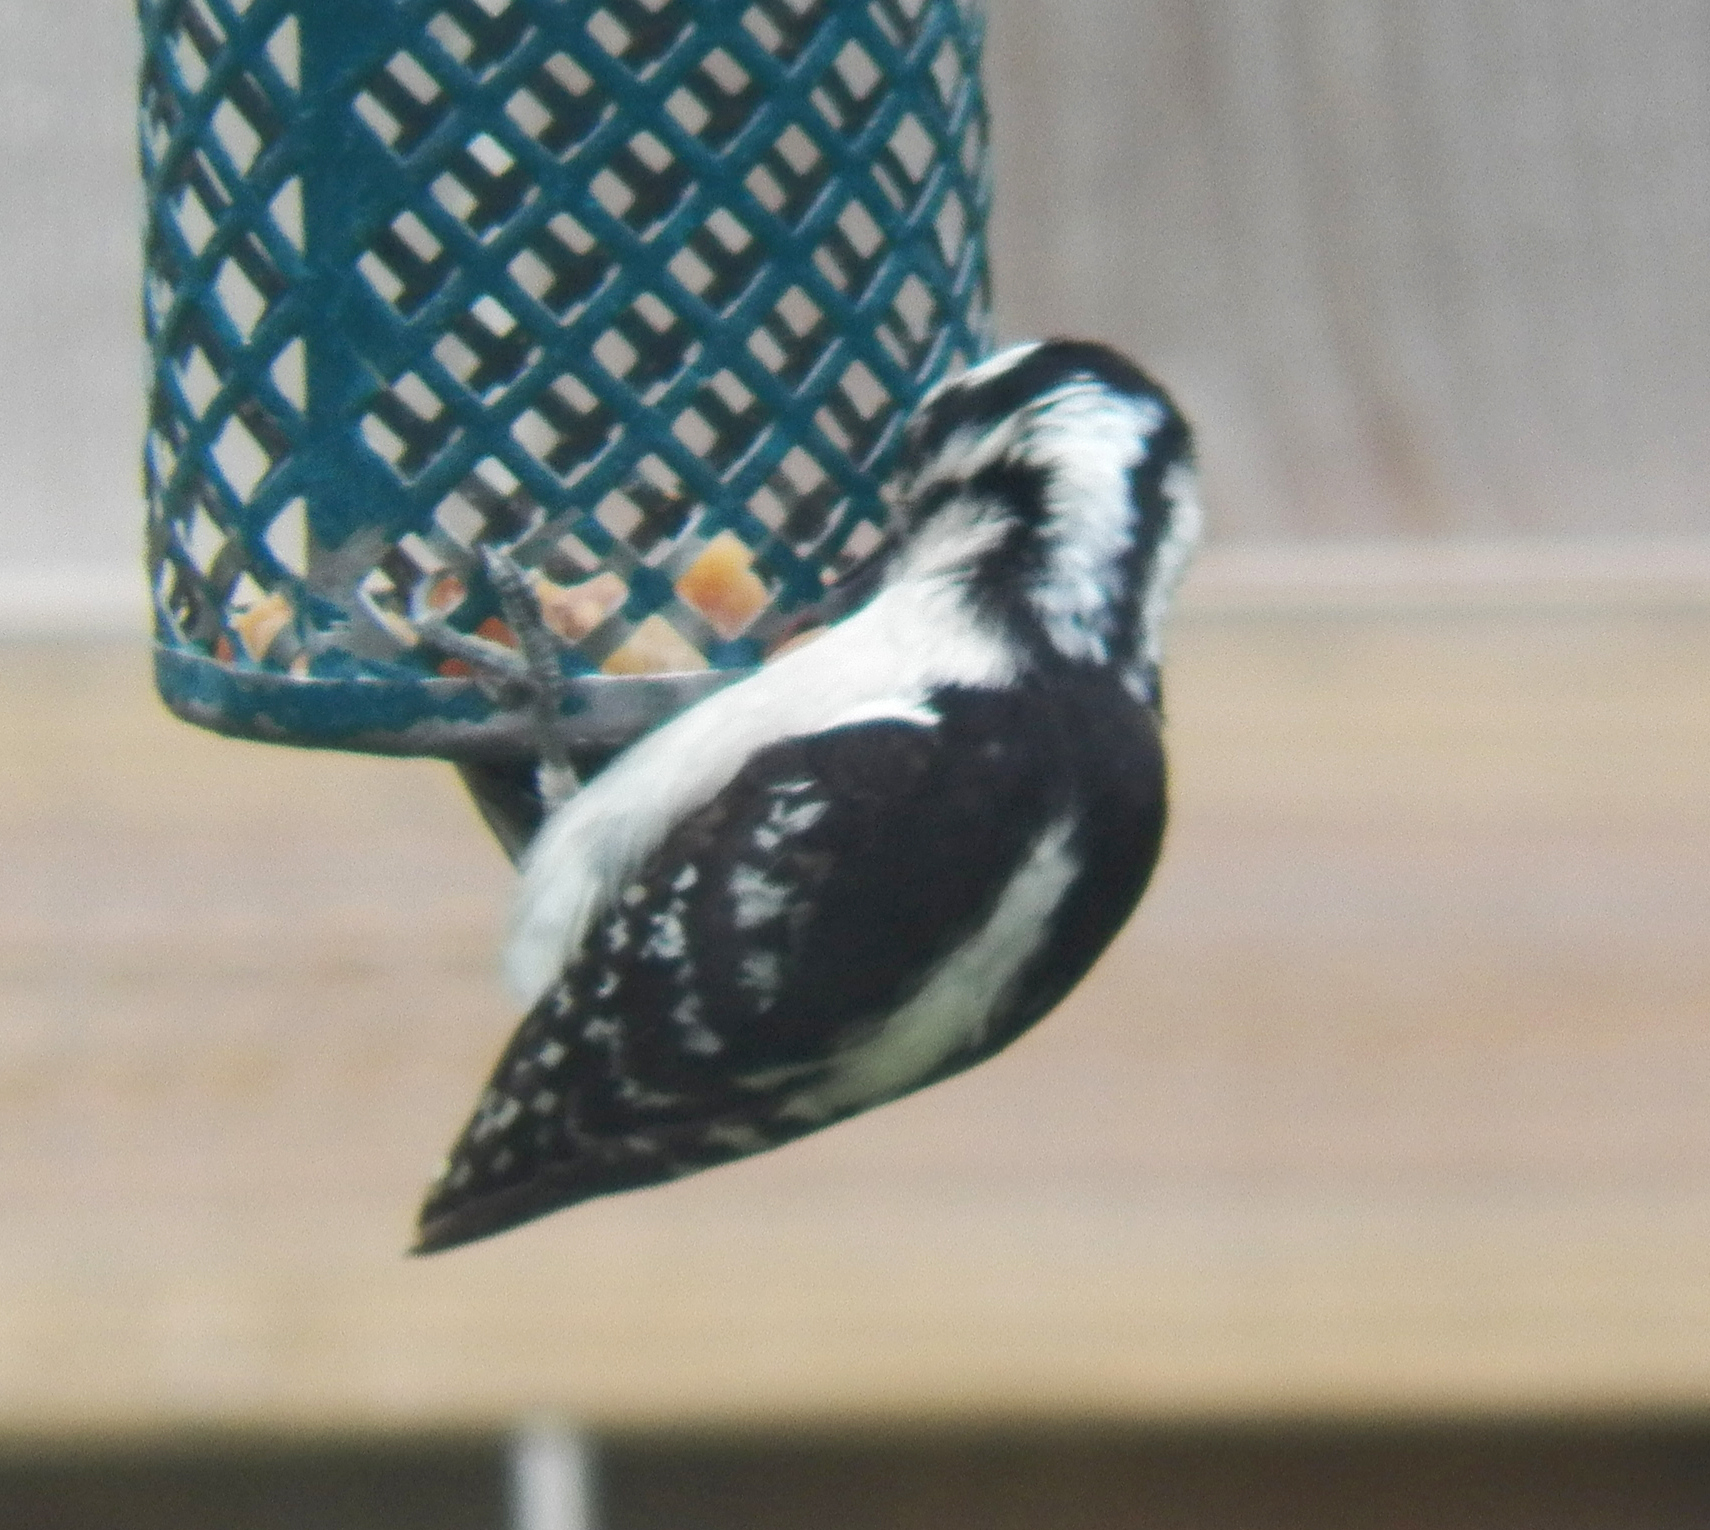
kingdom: Animalia
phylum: Chordata
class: Aves
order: Piciformes
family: Picidae
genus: Dryobates
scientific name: Dryobates pubescens
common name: Downy woodpecker
